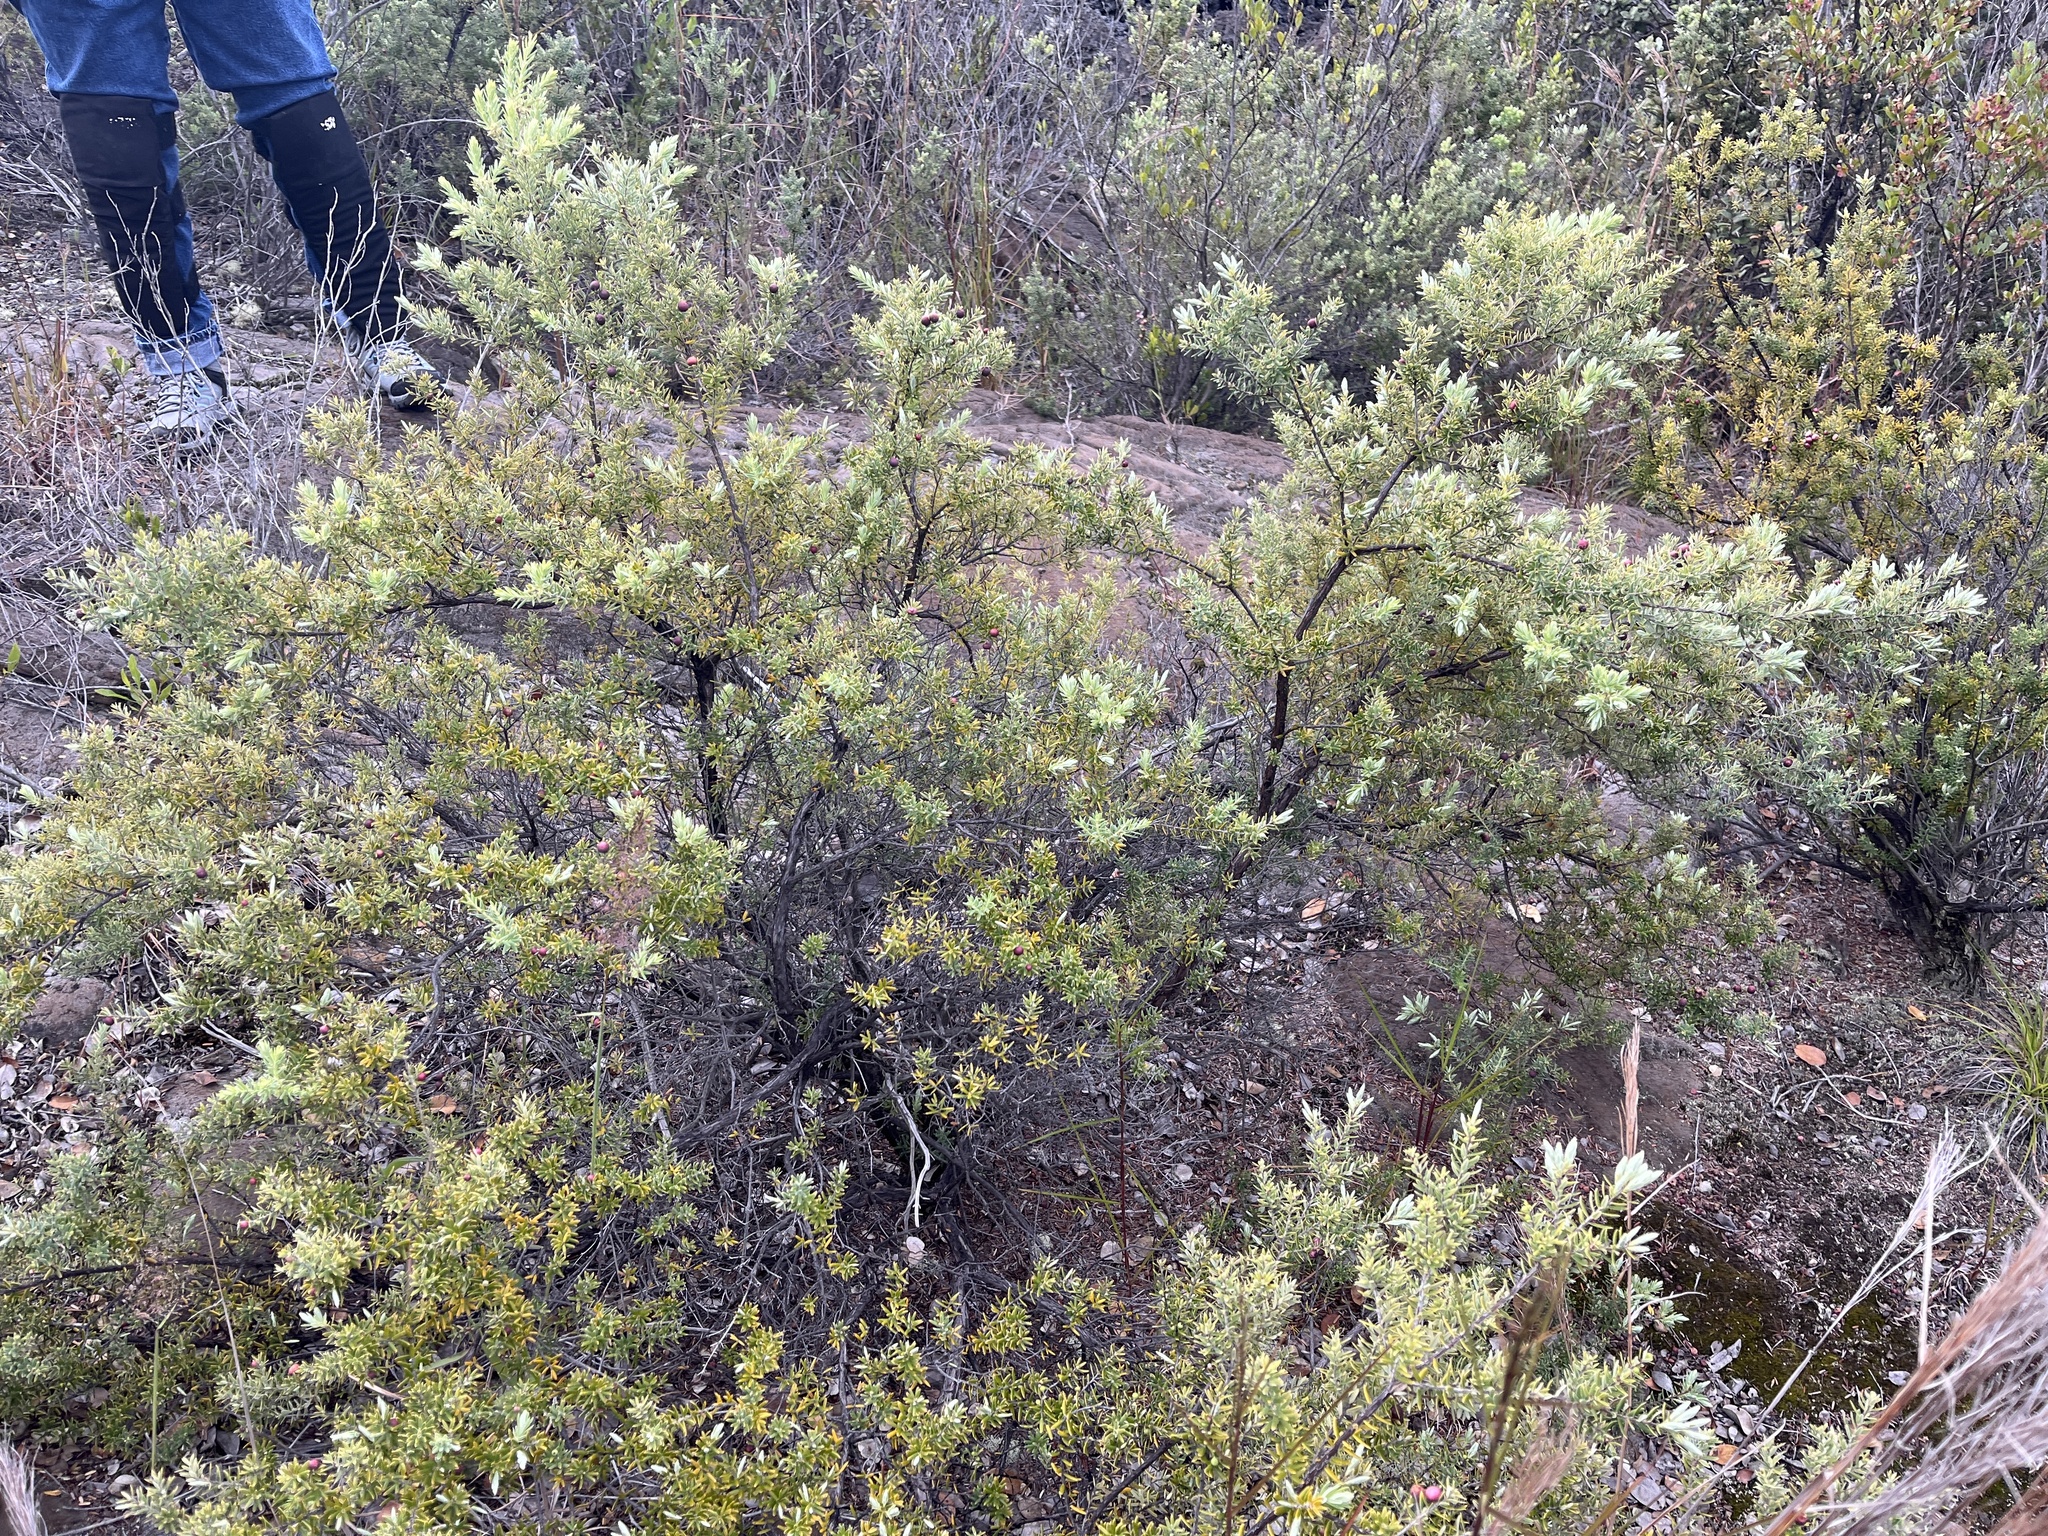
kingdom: Plantae
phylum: Tracheophyta
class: Magnoliopsida
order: Ericales
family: Ericaceae
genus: Leptecophylla
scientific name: Leptecophylla tameiameiae
